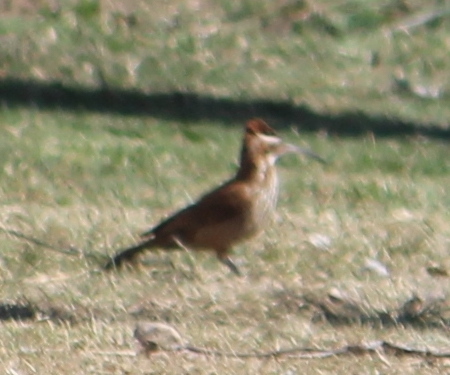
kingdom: Animalia
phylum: Chordata
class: Aves
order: Passeriformes
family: Furnariidae
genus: Drymornis
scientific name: Drymornis bridgesii
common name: Scimitar-billed woodcreeper
